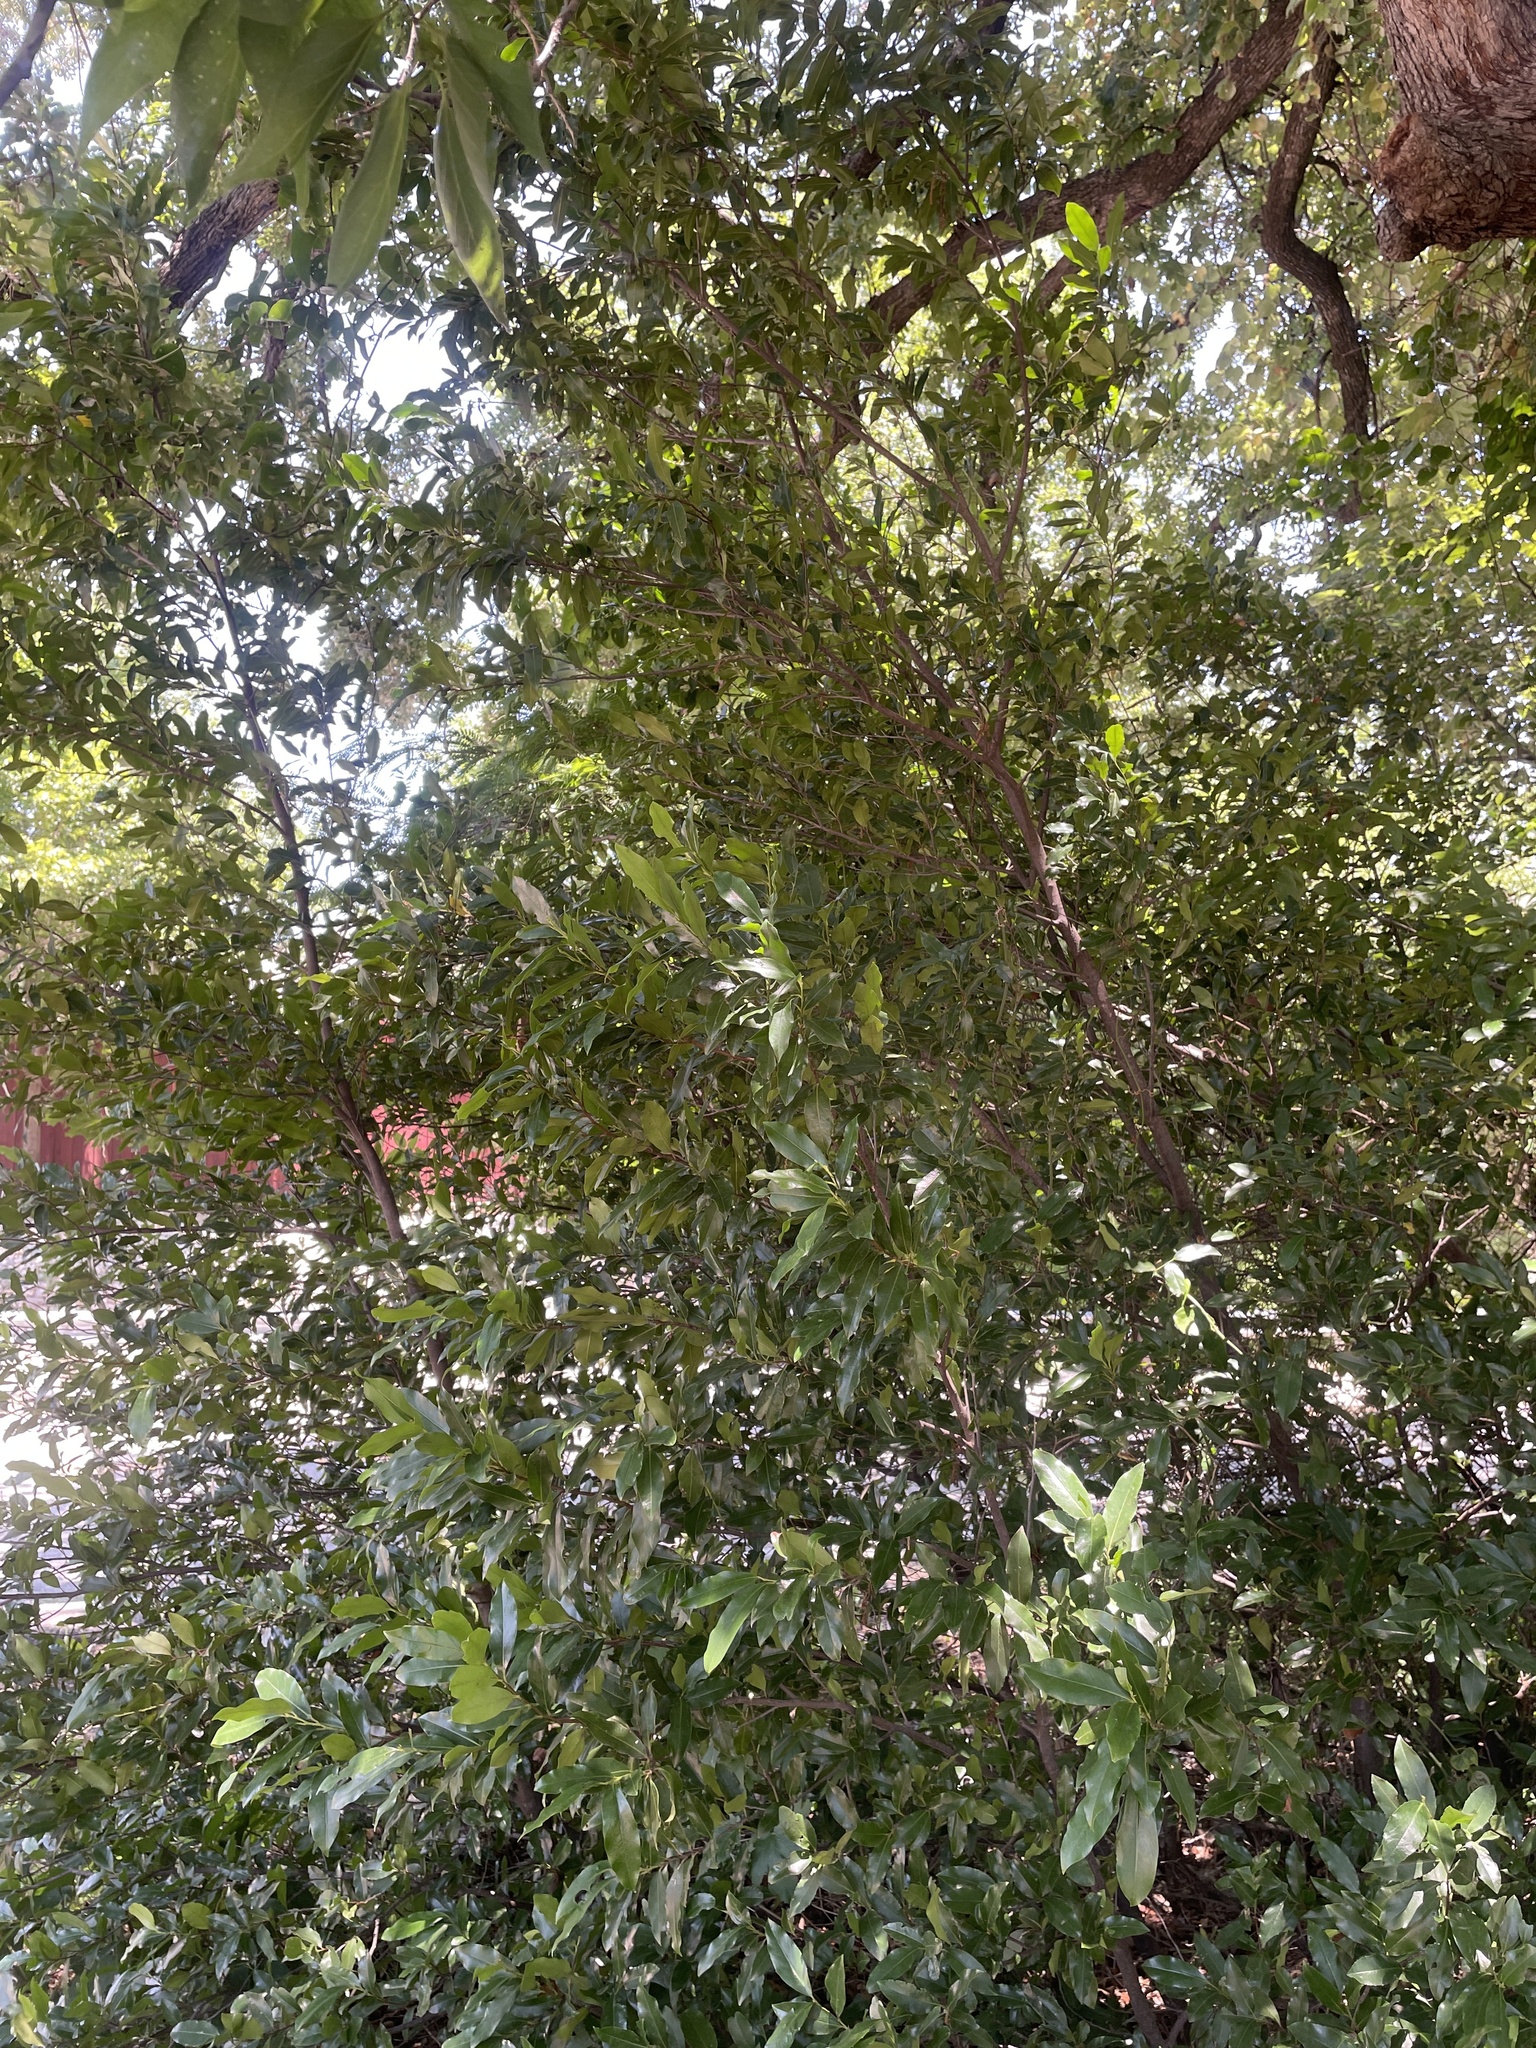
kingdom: Plantae
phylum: Tracheophyta
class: Magnoliopsida
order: Rosales
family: Rosaceae
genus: Prunus
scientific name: Prunus caroliniana
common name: Carolina laurel cherry
